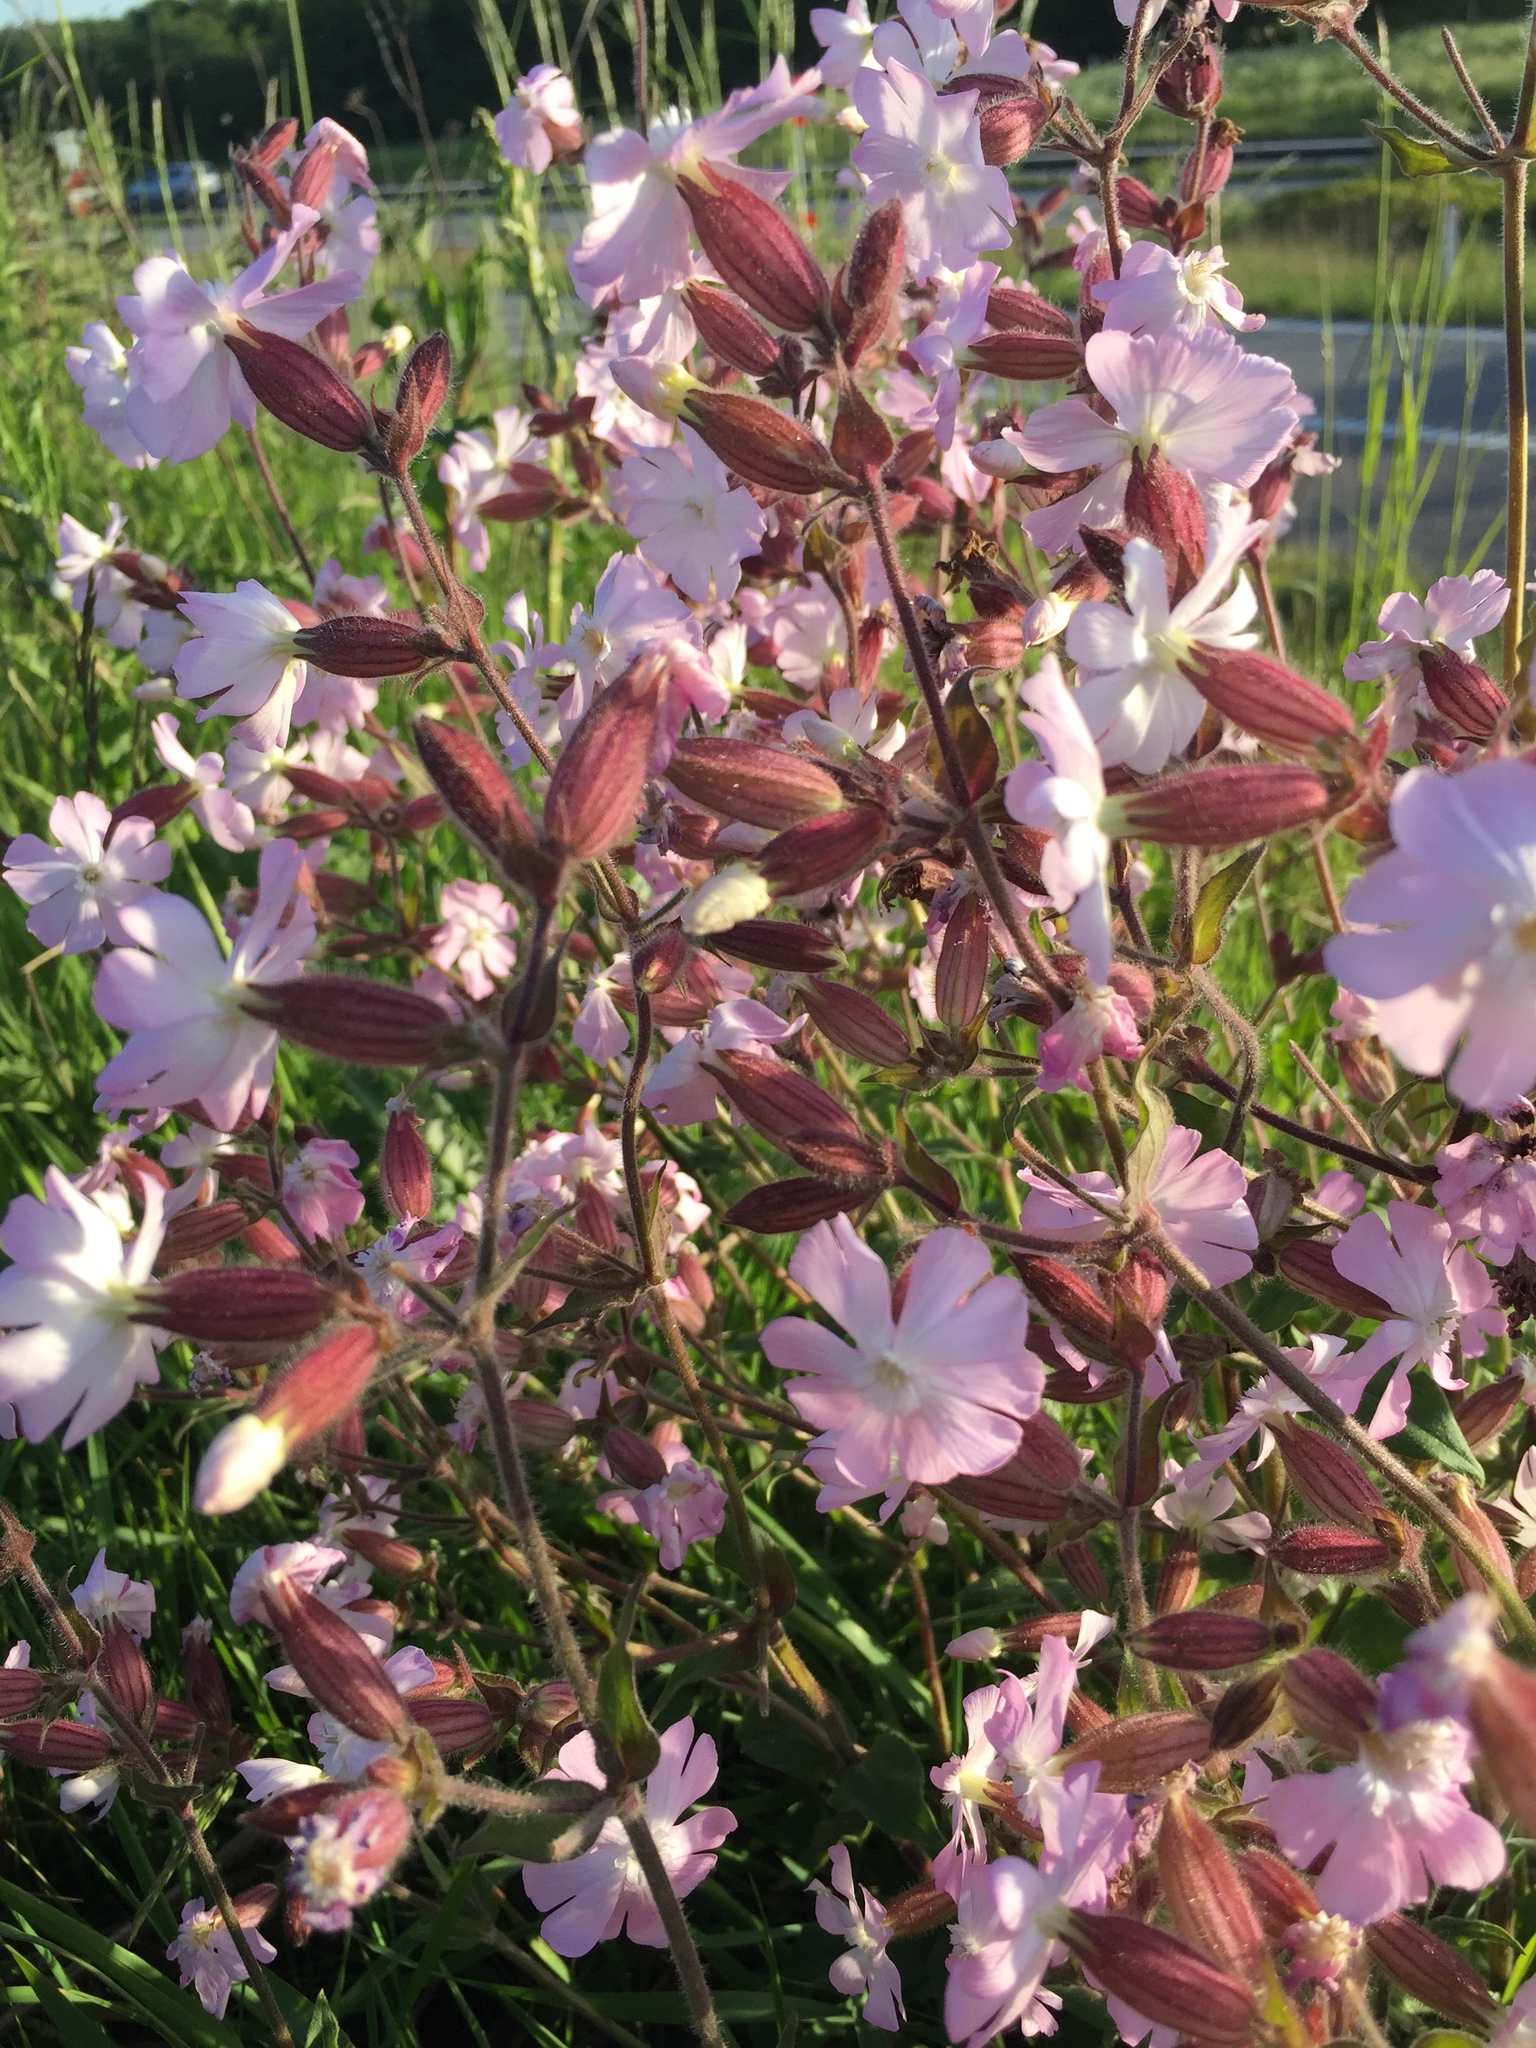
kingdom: Plantae
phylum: Tracheophyta
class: Magnoliopsida
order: Caryophyllales
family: Caryophyllaceae
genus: Silene
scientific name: Silene dioica
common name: Red campion
